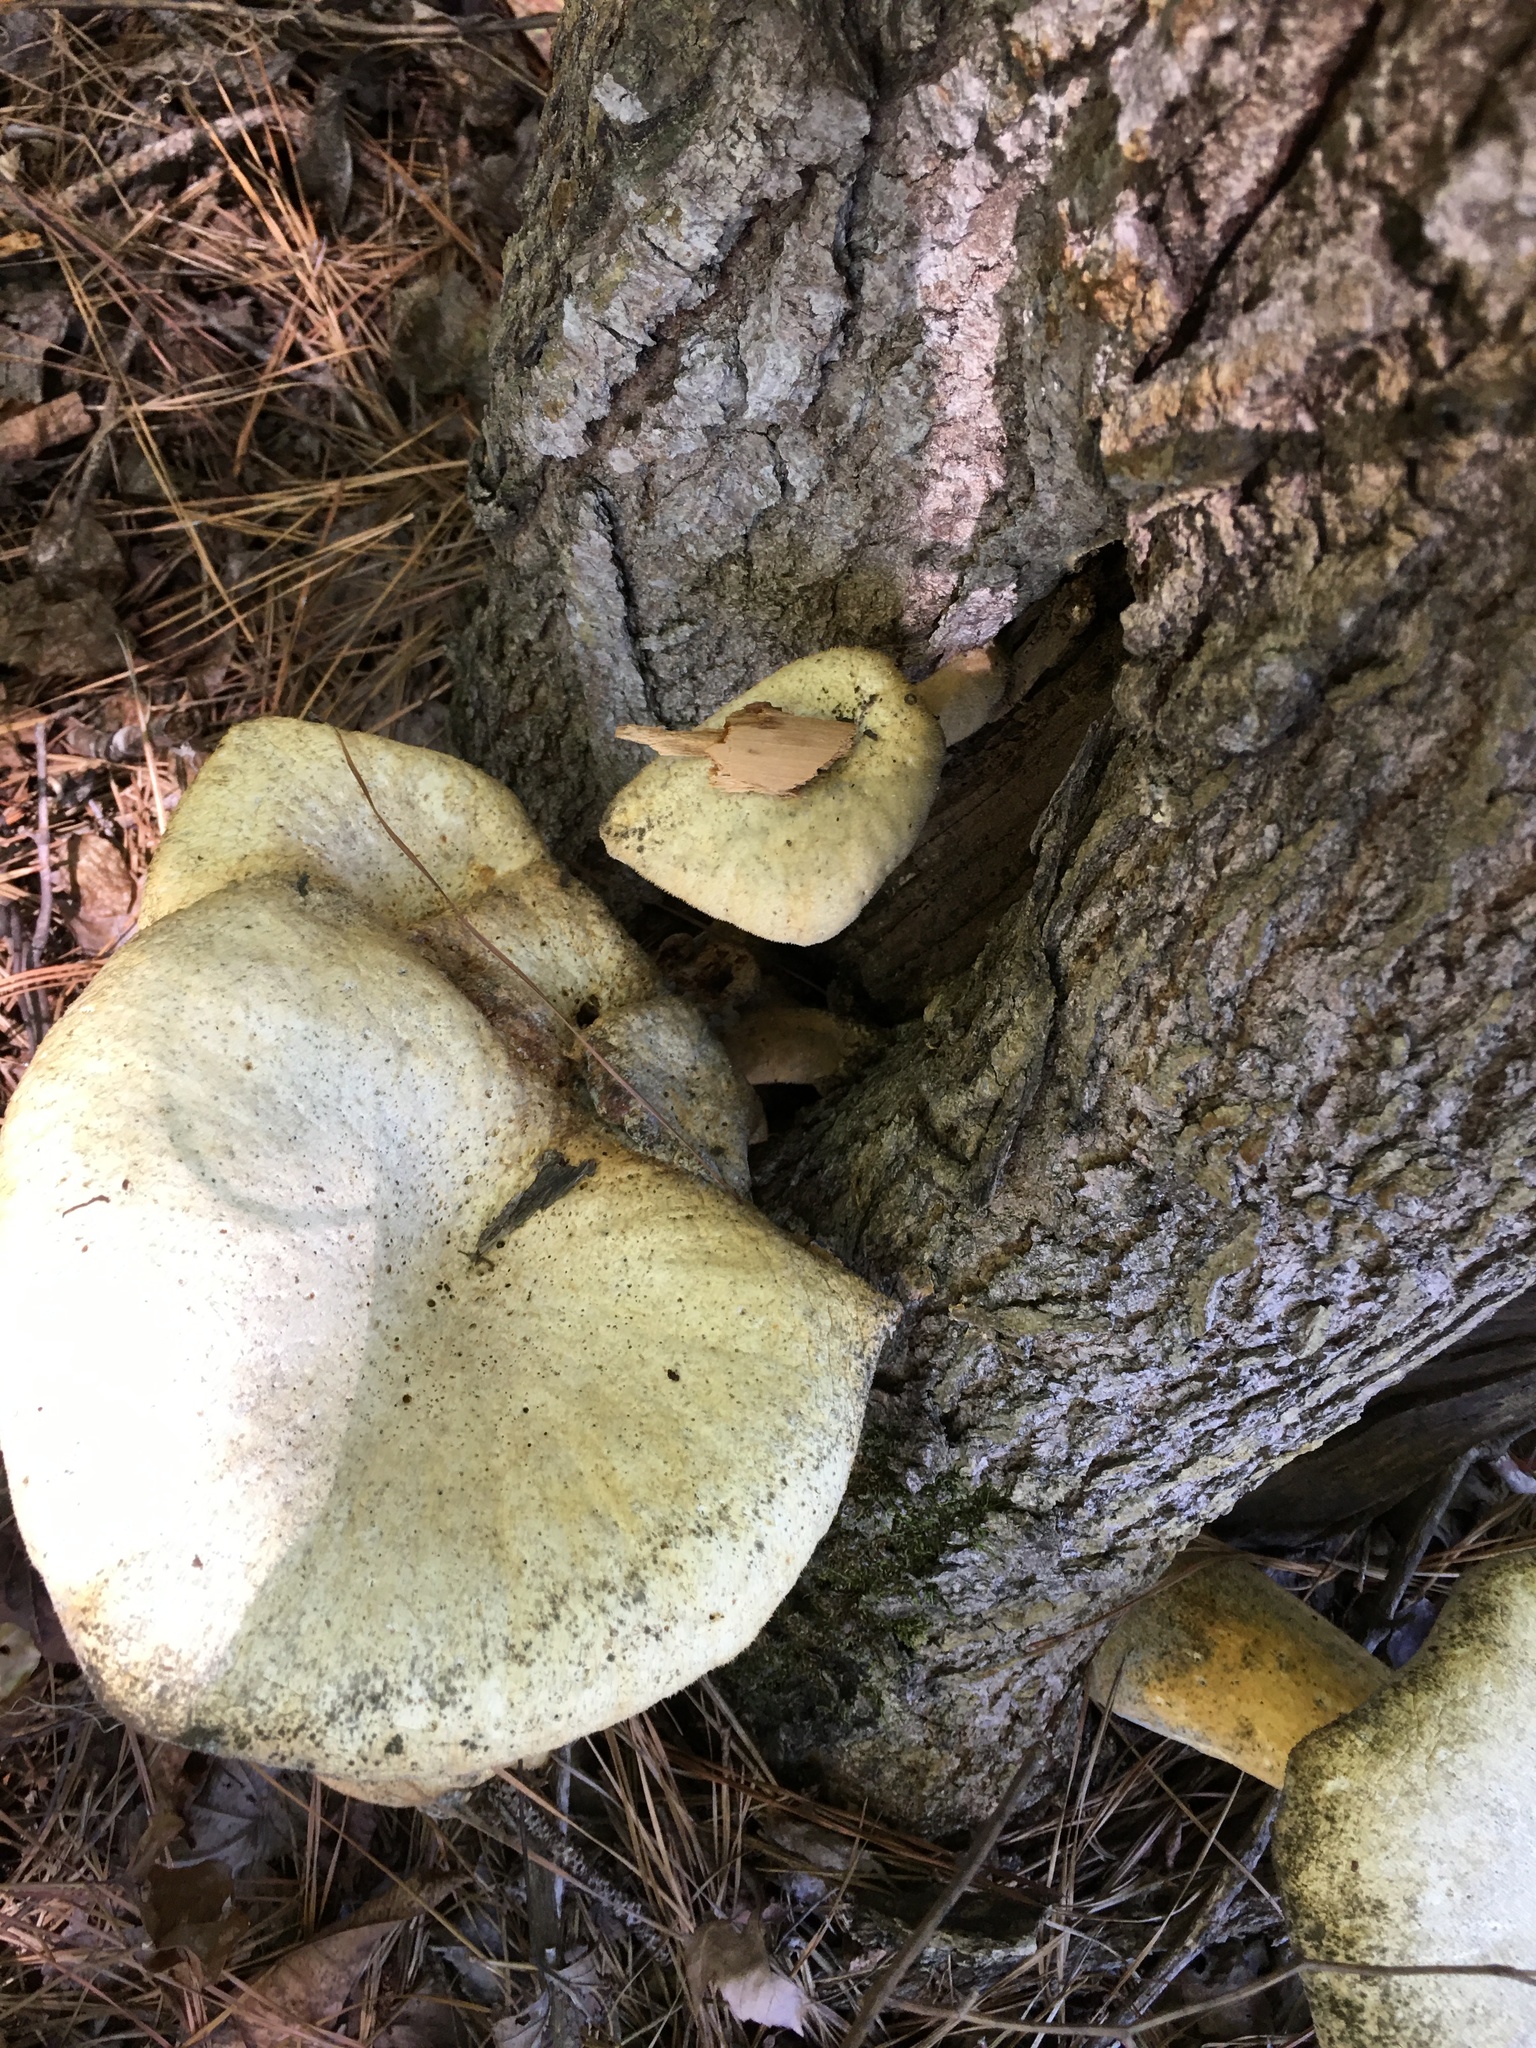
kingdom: Fungi
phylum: Basidiomycota
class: Agaricomycetes
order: Polyporales
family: Polyporaceae
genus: Lentinus
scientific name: Lentinus levis
